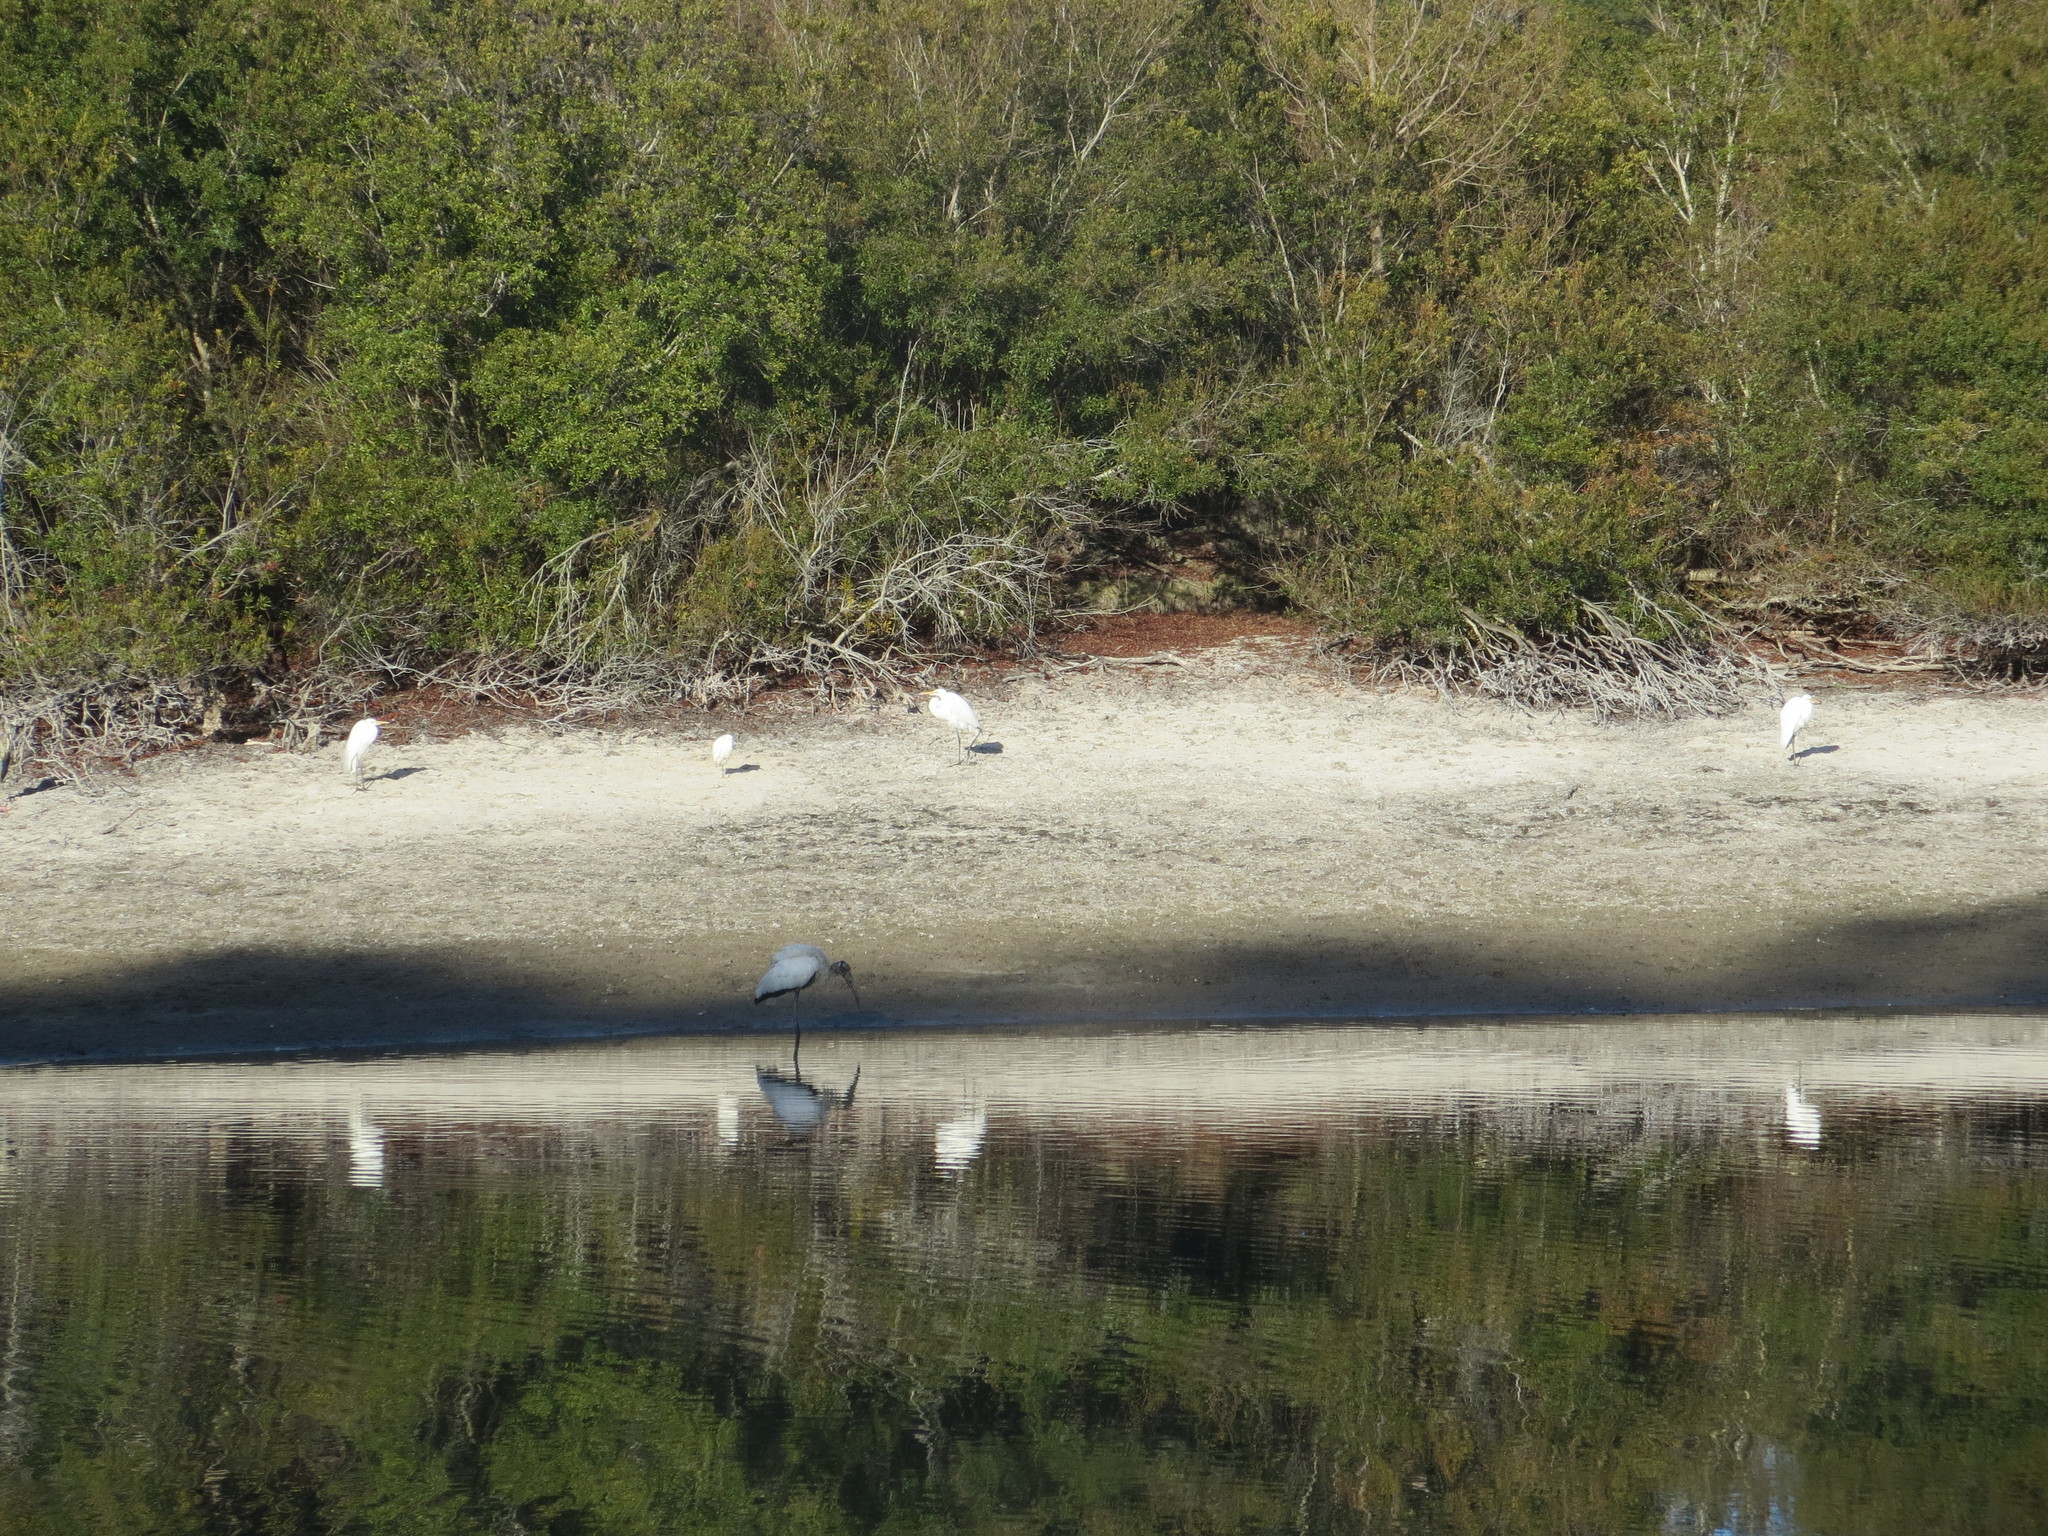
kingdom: Animalia
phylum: Chordata
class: Aves
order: Pelecaniformes
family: Ardeidae
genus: Ardea
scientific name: Ardea alba
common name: Great egret
